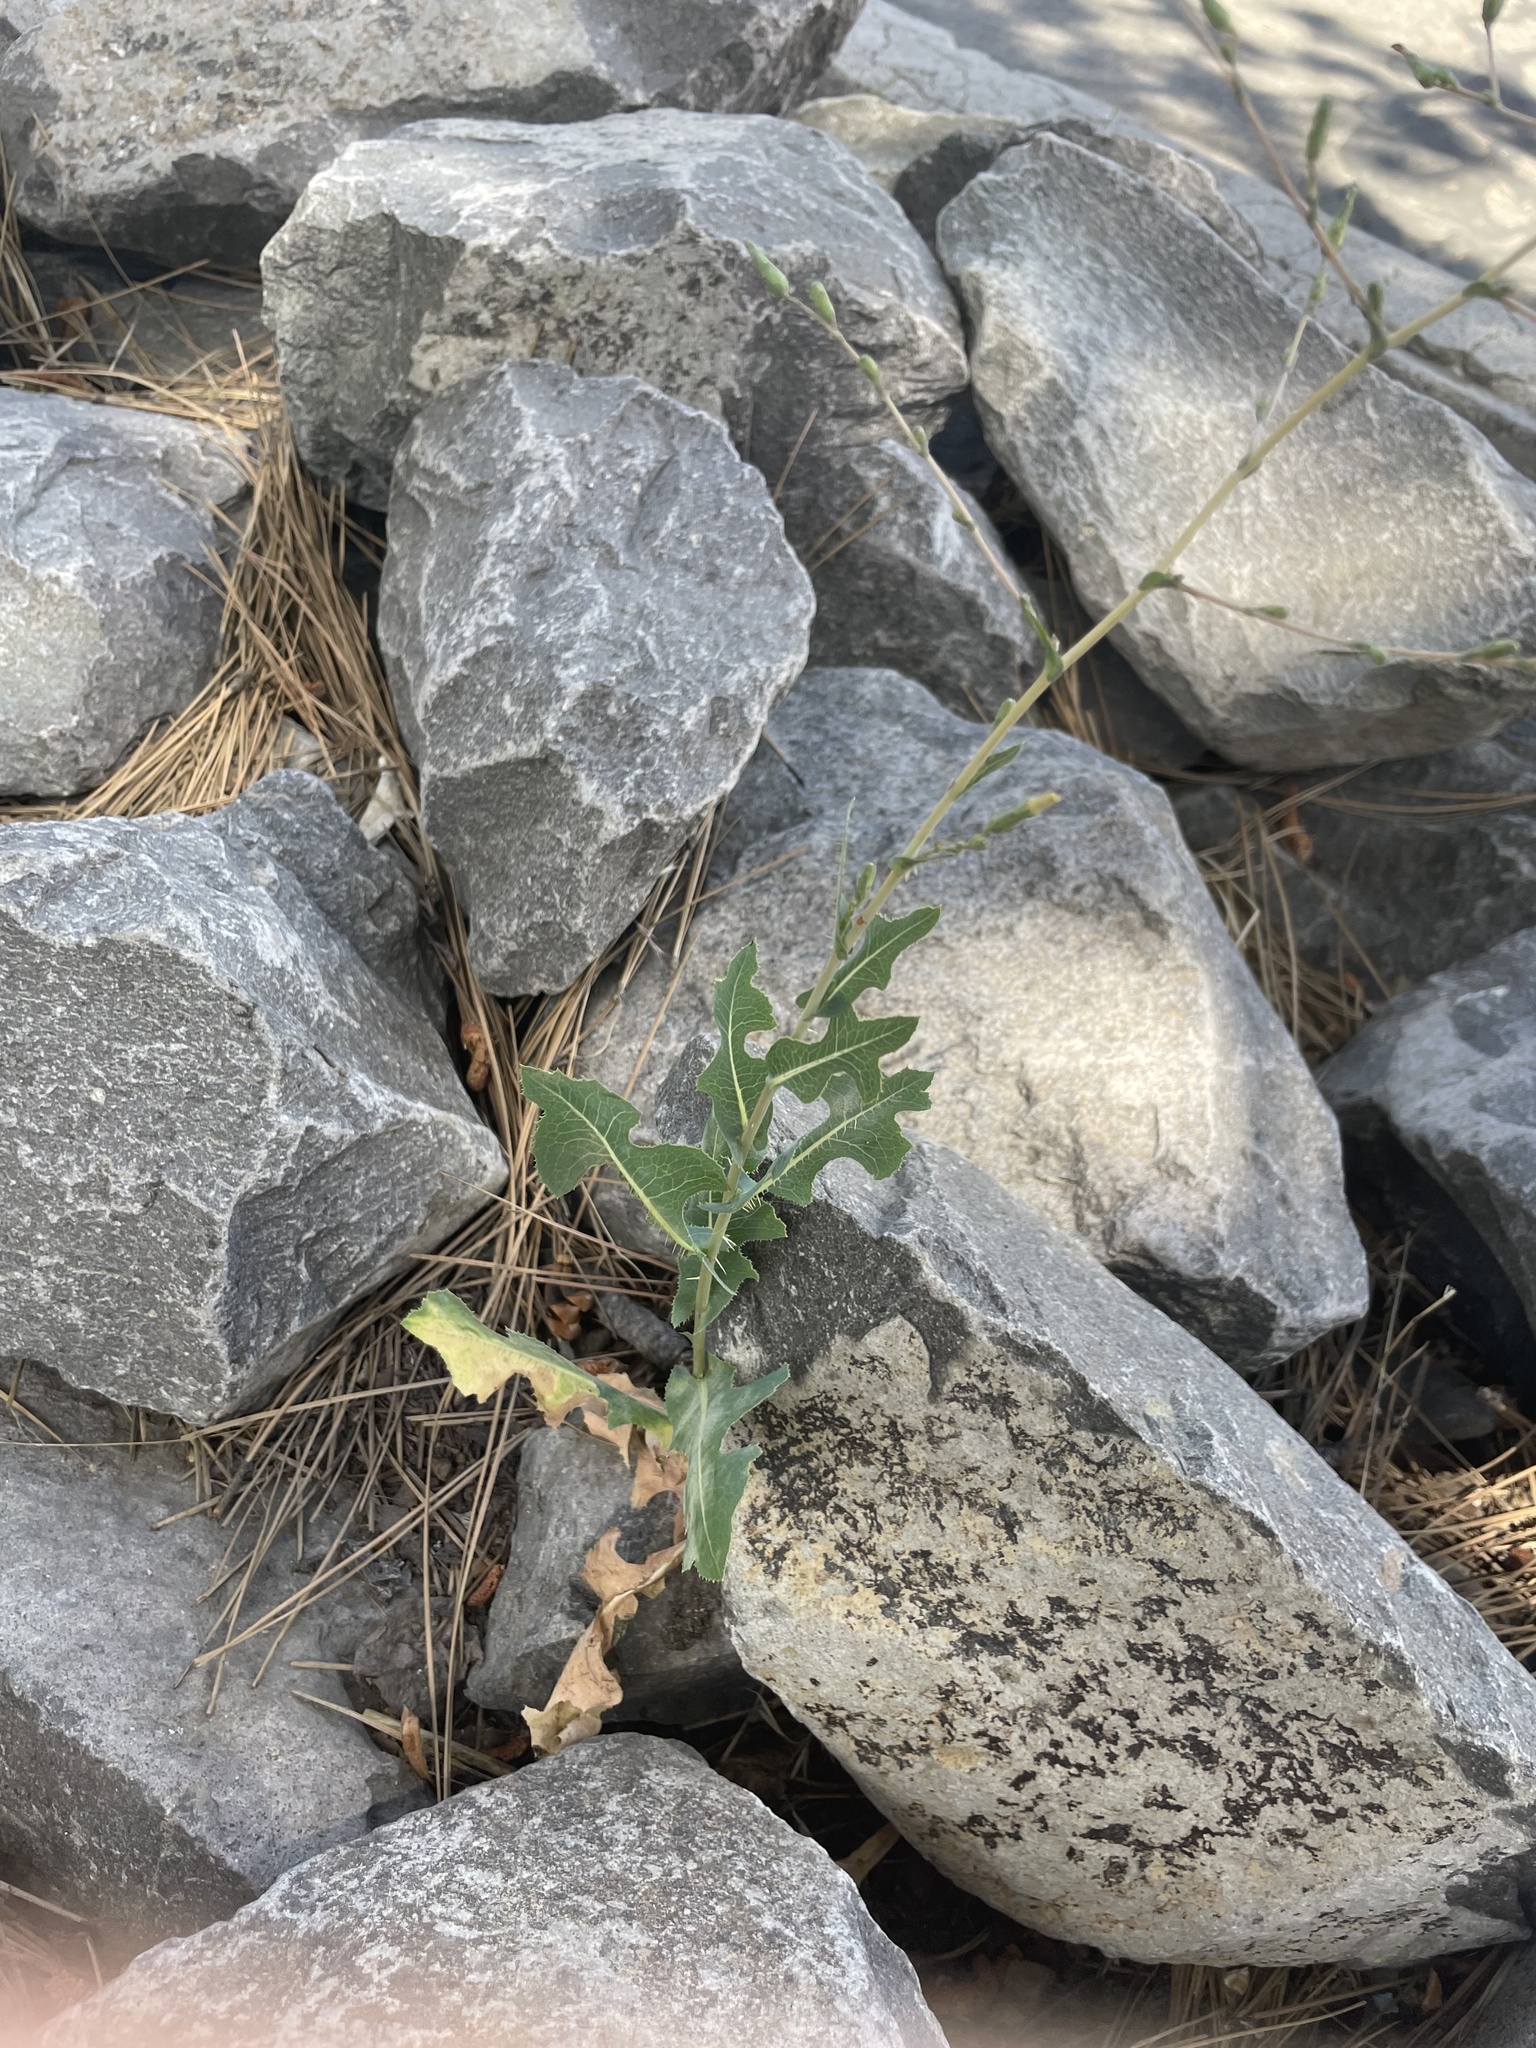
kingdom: Plantae
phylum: Tracheophyta
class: Magnoliopsida
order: Asterales
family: Asteraceae
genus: Lactuca
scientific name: Lactuca serriola
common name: Prickly lettuce
